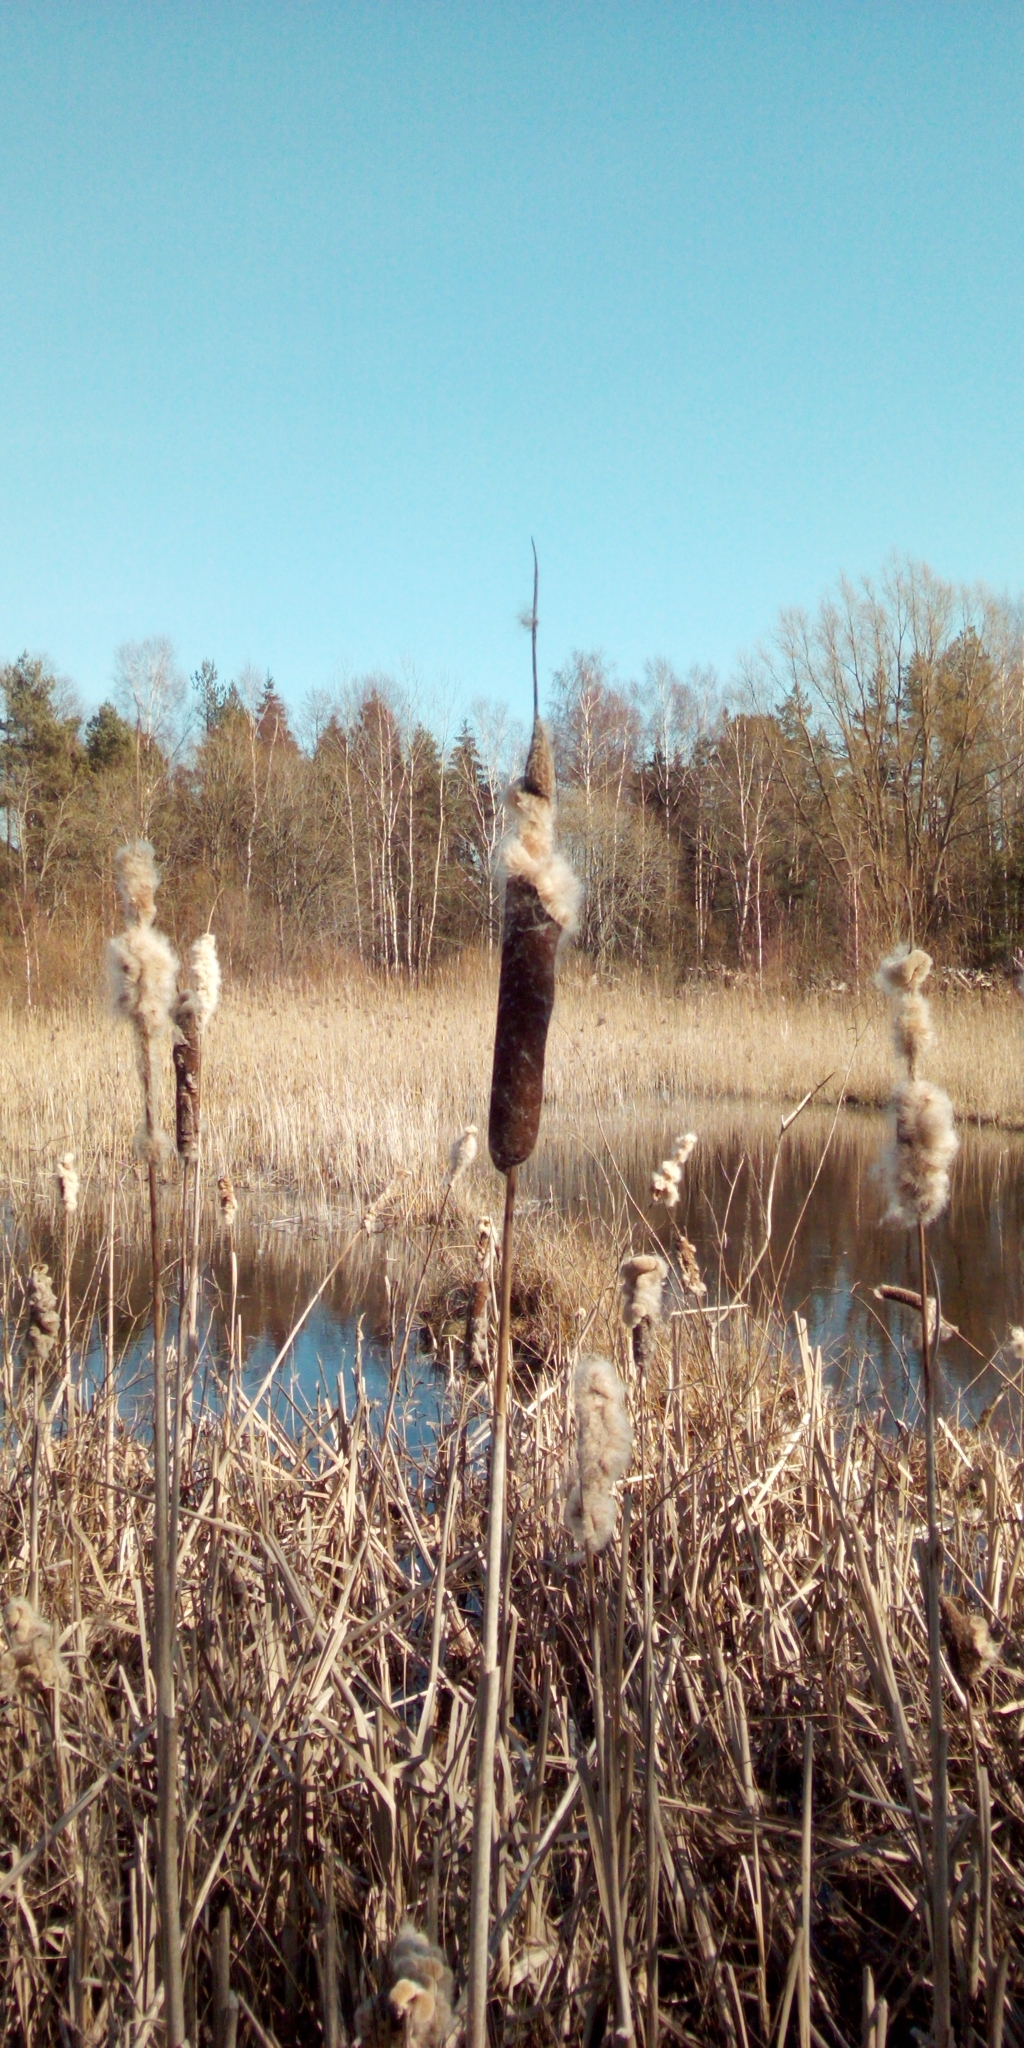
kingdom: Plantae
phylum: Tracheophyta
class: Liliopsida
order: Poales
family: Typhaceae
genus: Typha
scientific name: Typha latifolia
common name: Broadleaf cattail
